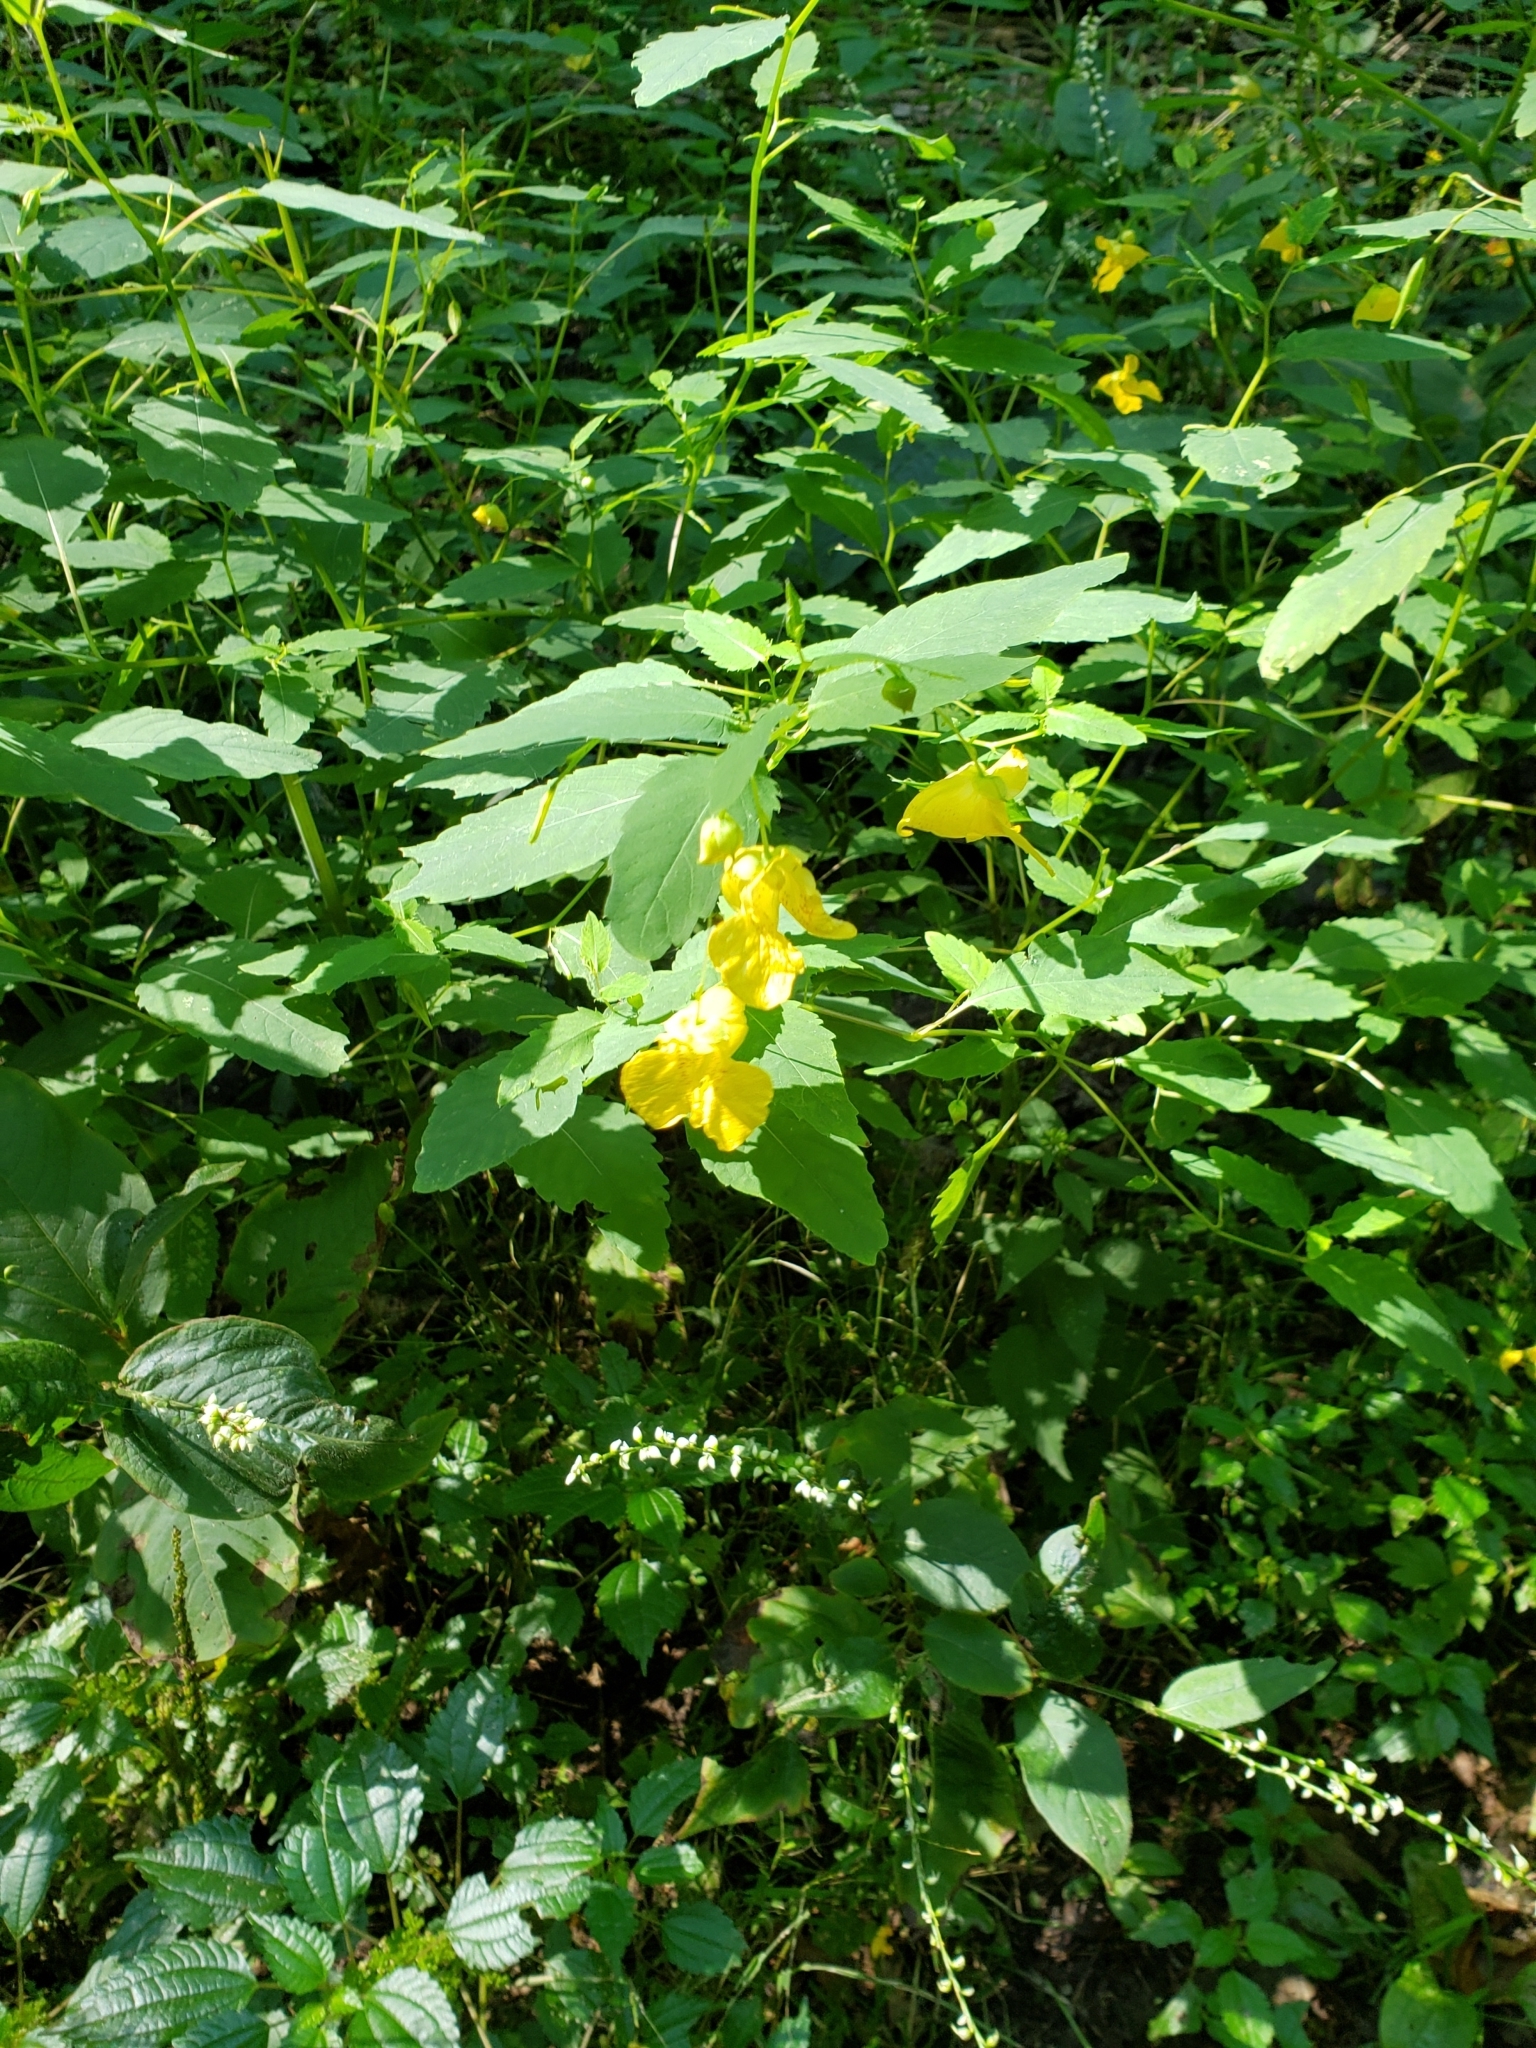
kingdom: Plantae
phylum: Tracheophyta
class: Magnoliopsida
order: Ericales
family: Balsaminaceae
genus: Impatiens
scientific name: Impatiens pallida
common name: Pale snapweed
